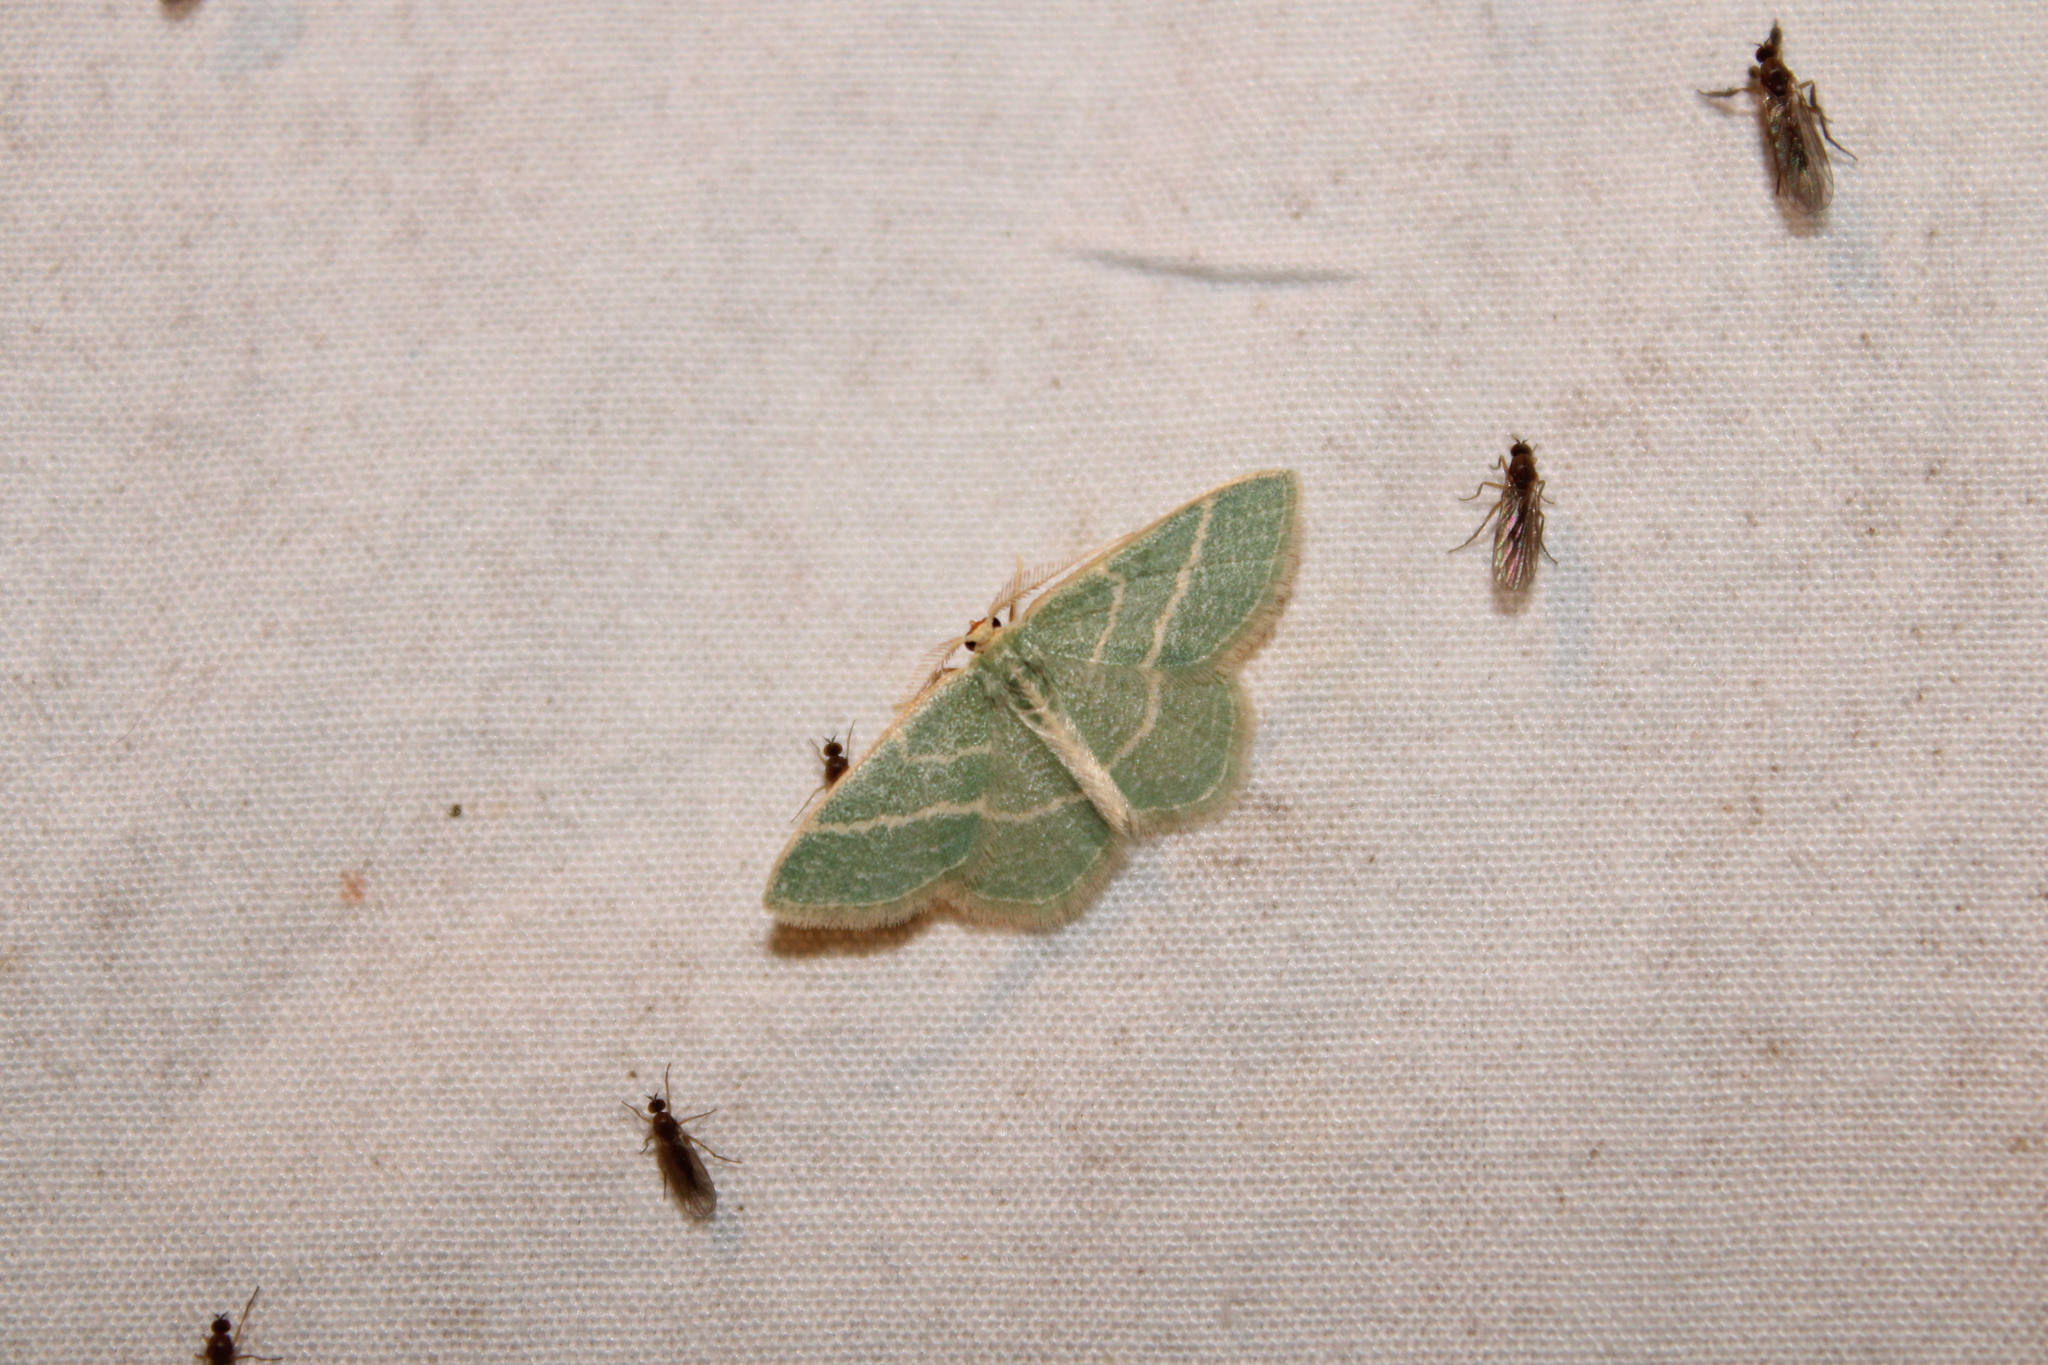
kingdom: Animalia
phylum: Arthropoda
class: Insecta
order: Lepidoptera
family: Geometridae
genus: Chlorochlamys
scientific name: Chlorochlamys chloroleucaria
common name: Blackberry looper
